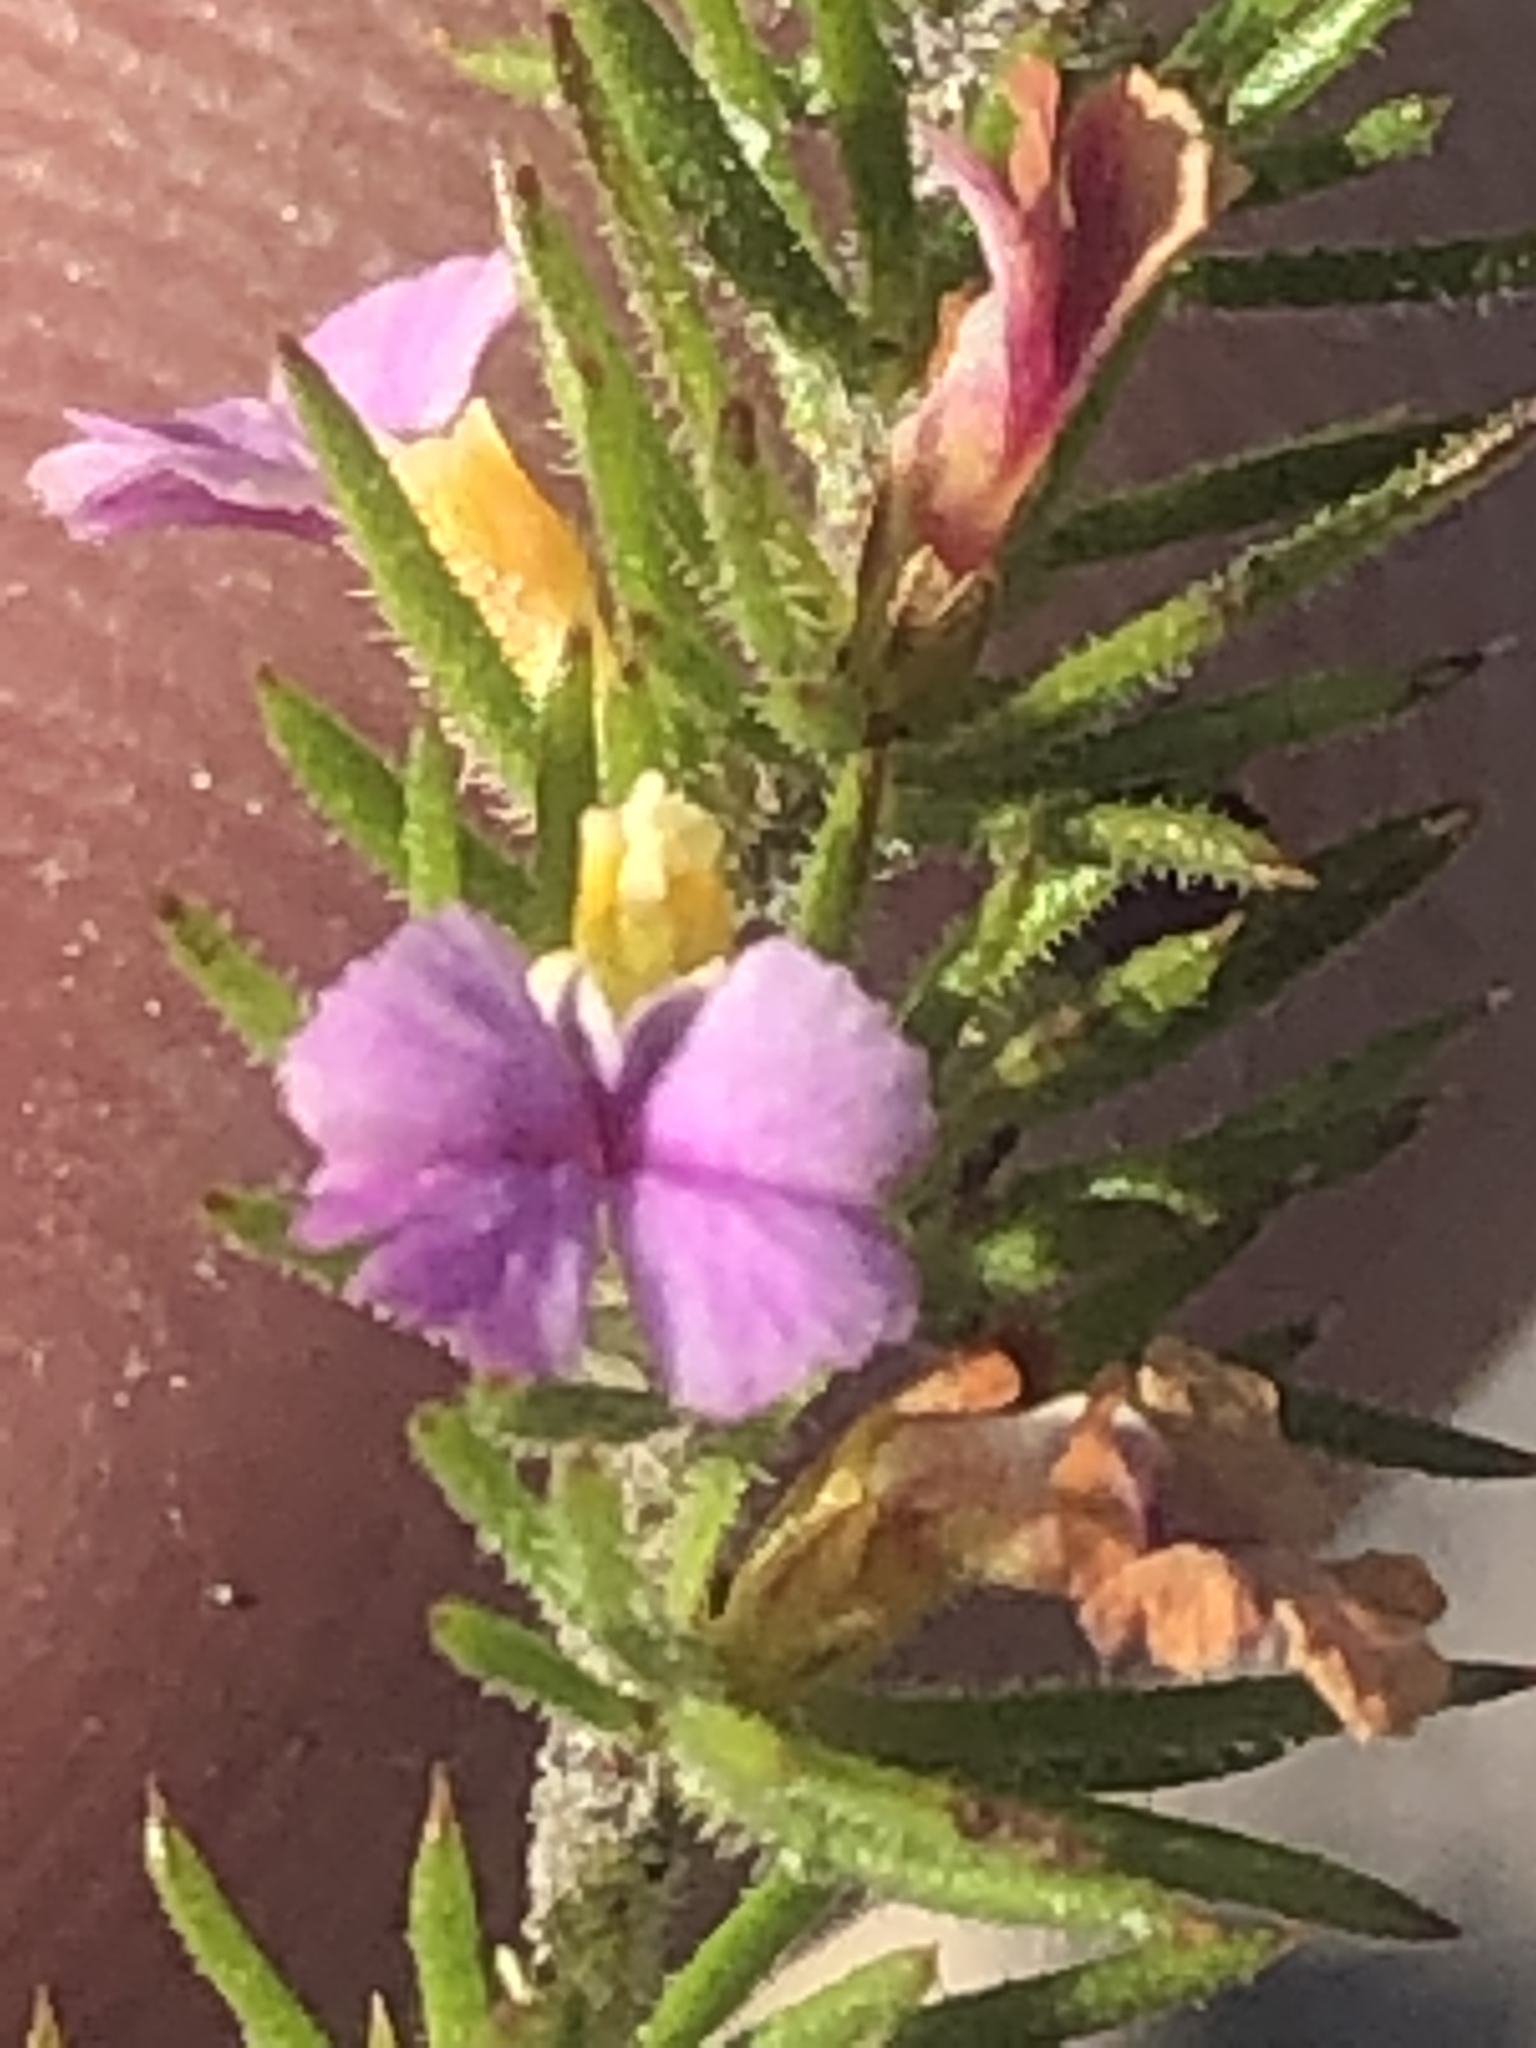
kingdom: Plantae
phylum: Tracheophyta
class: Magnoliopsida
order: Fabales
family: Polygalaceae
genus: Muraltia
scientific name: Muraltia ciliaris
